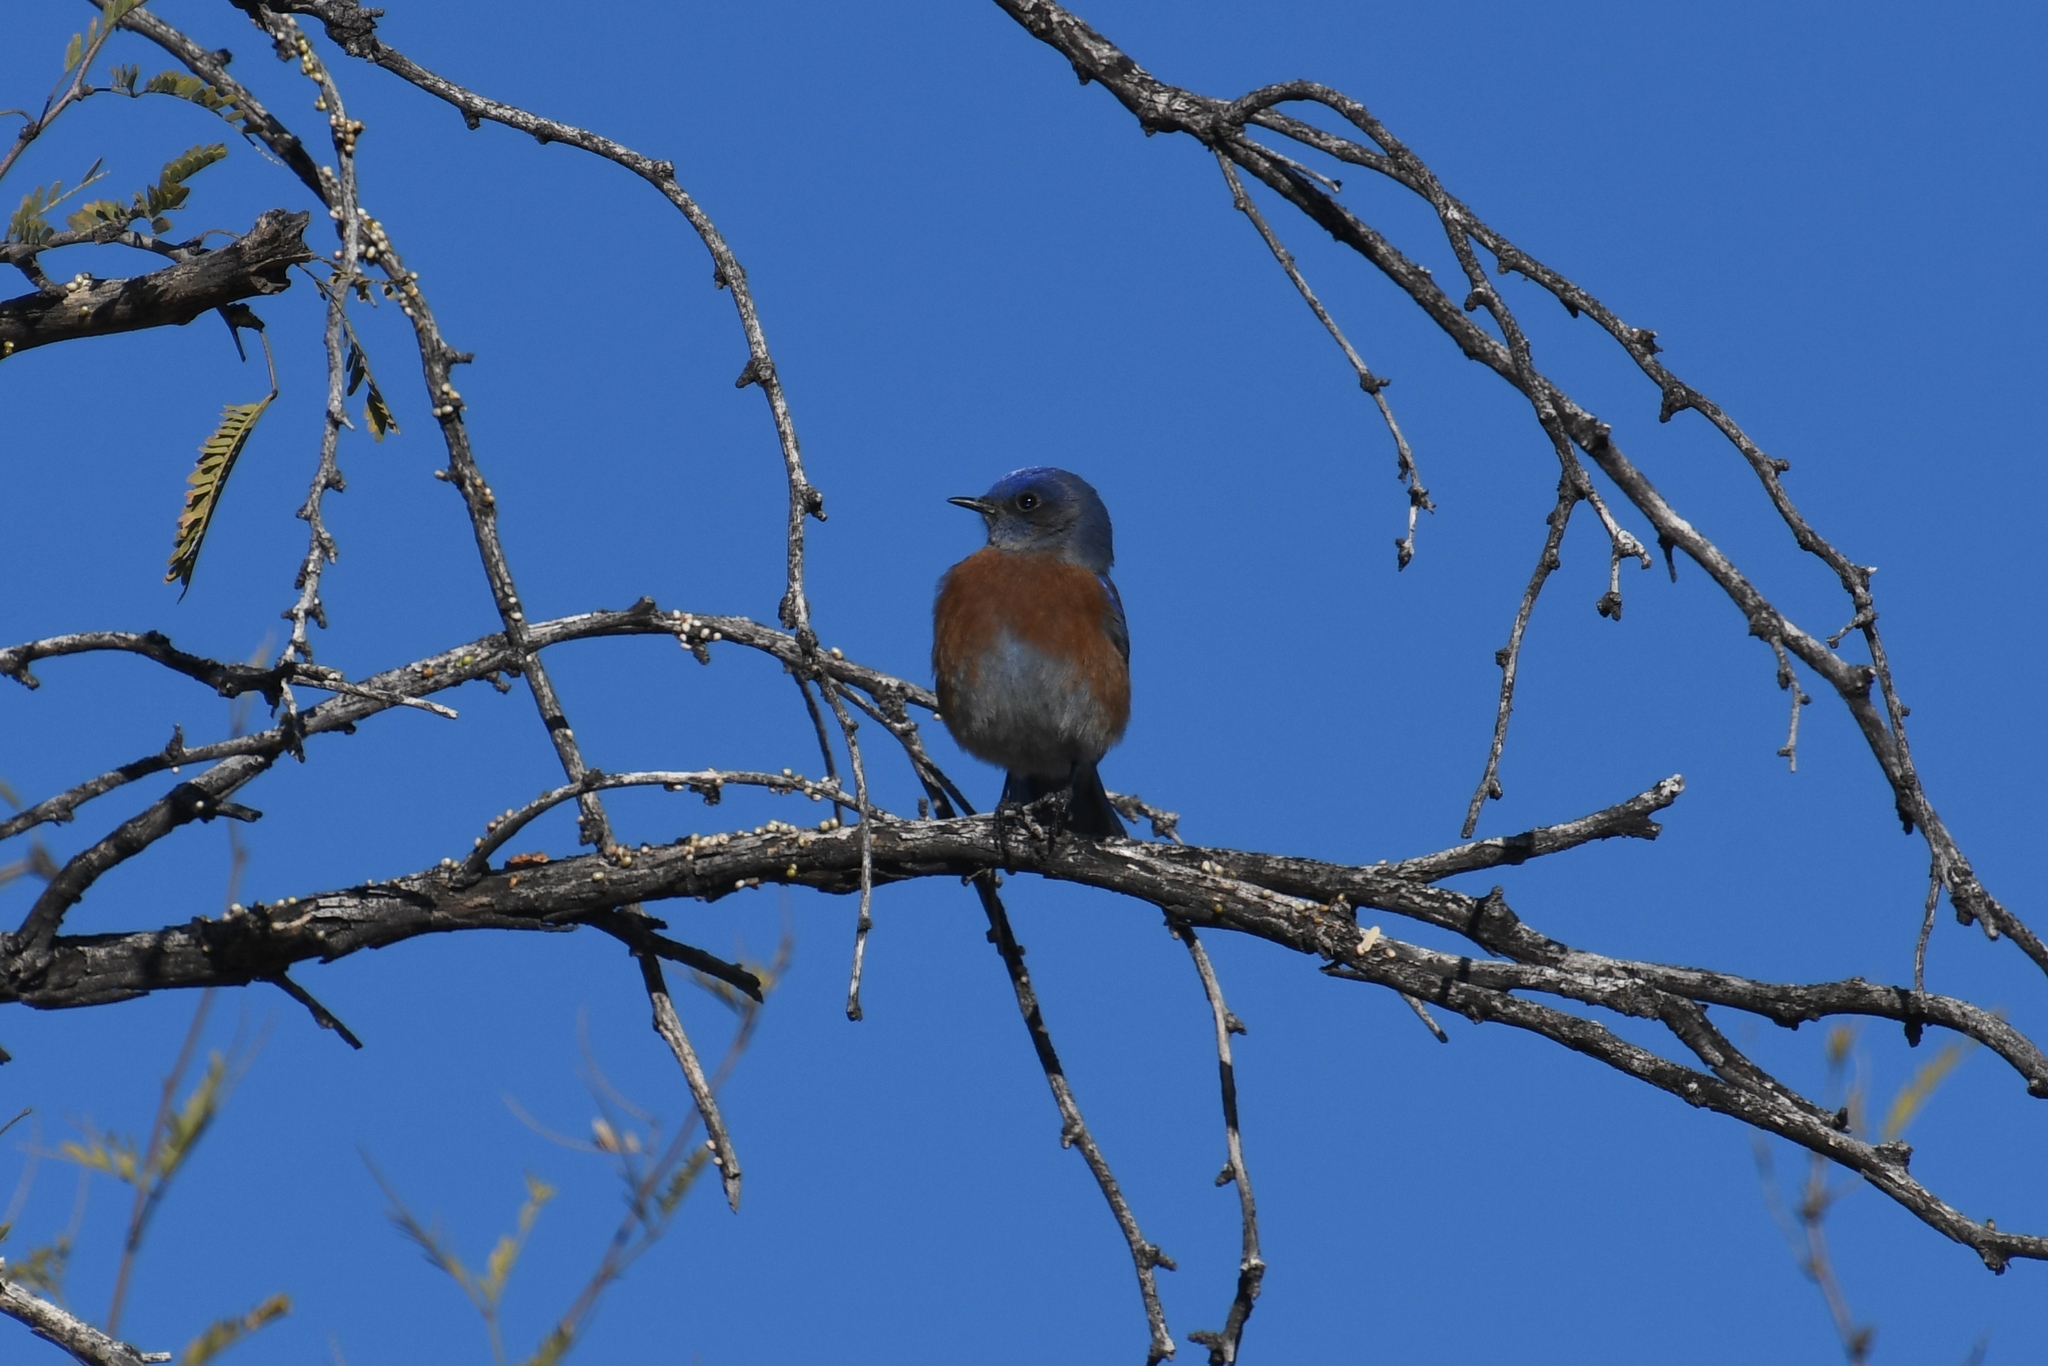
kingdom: Animalia
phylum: Chordata
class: Aves
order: Passeriformes
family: Turdidae
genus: Sialia
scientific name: Sialia mexicana
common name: Western bluebird
